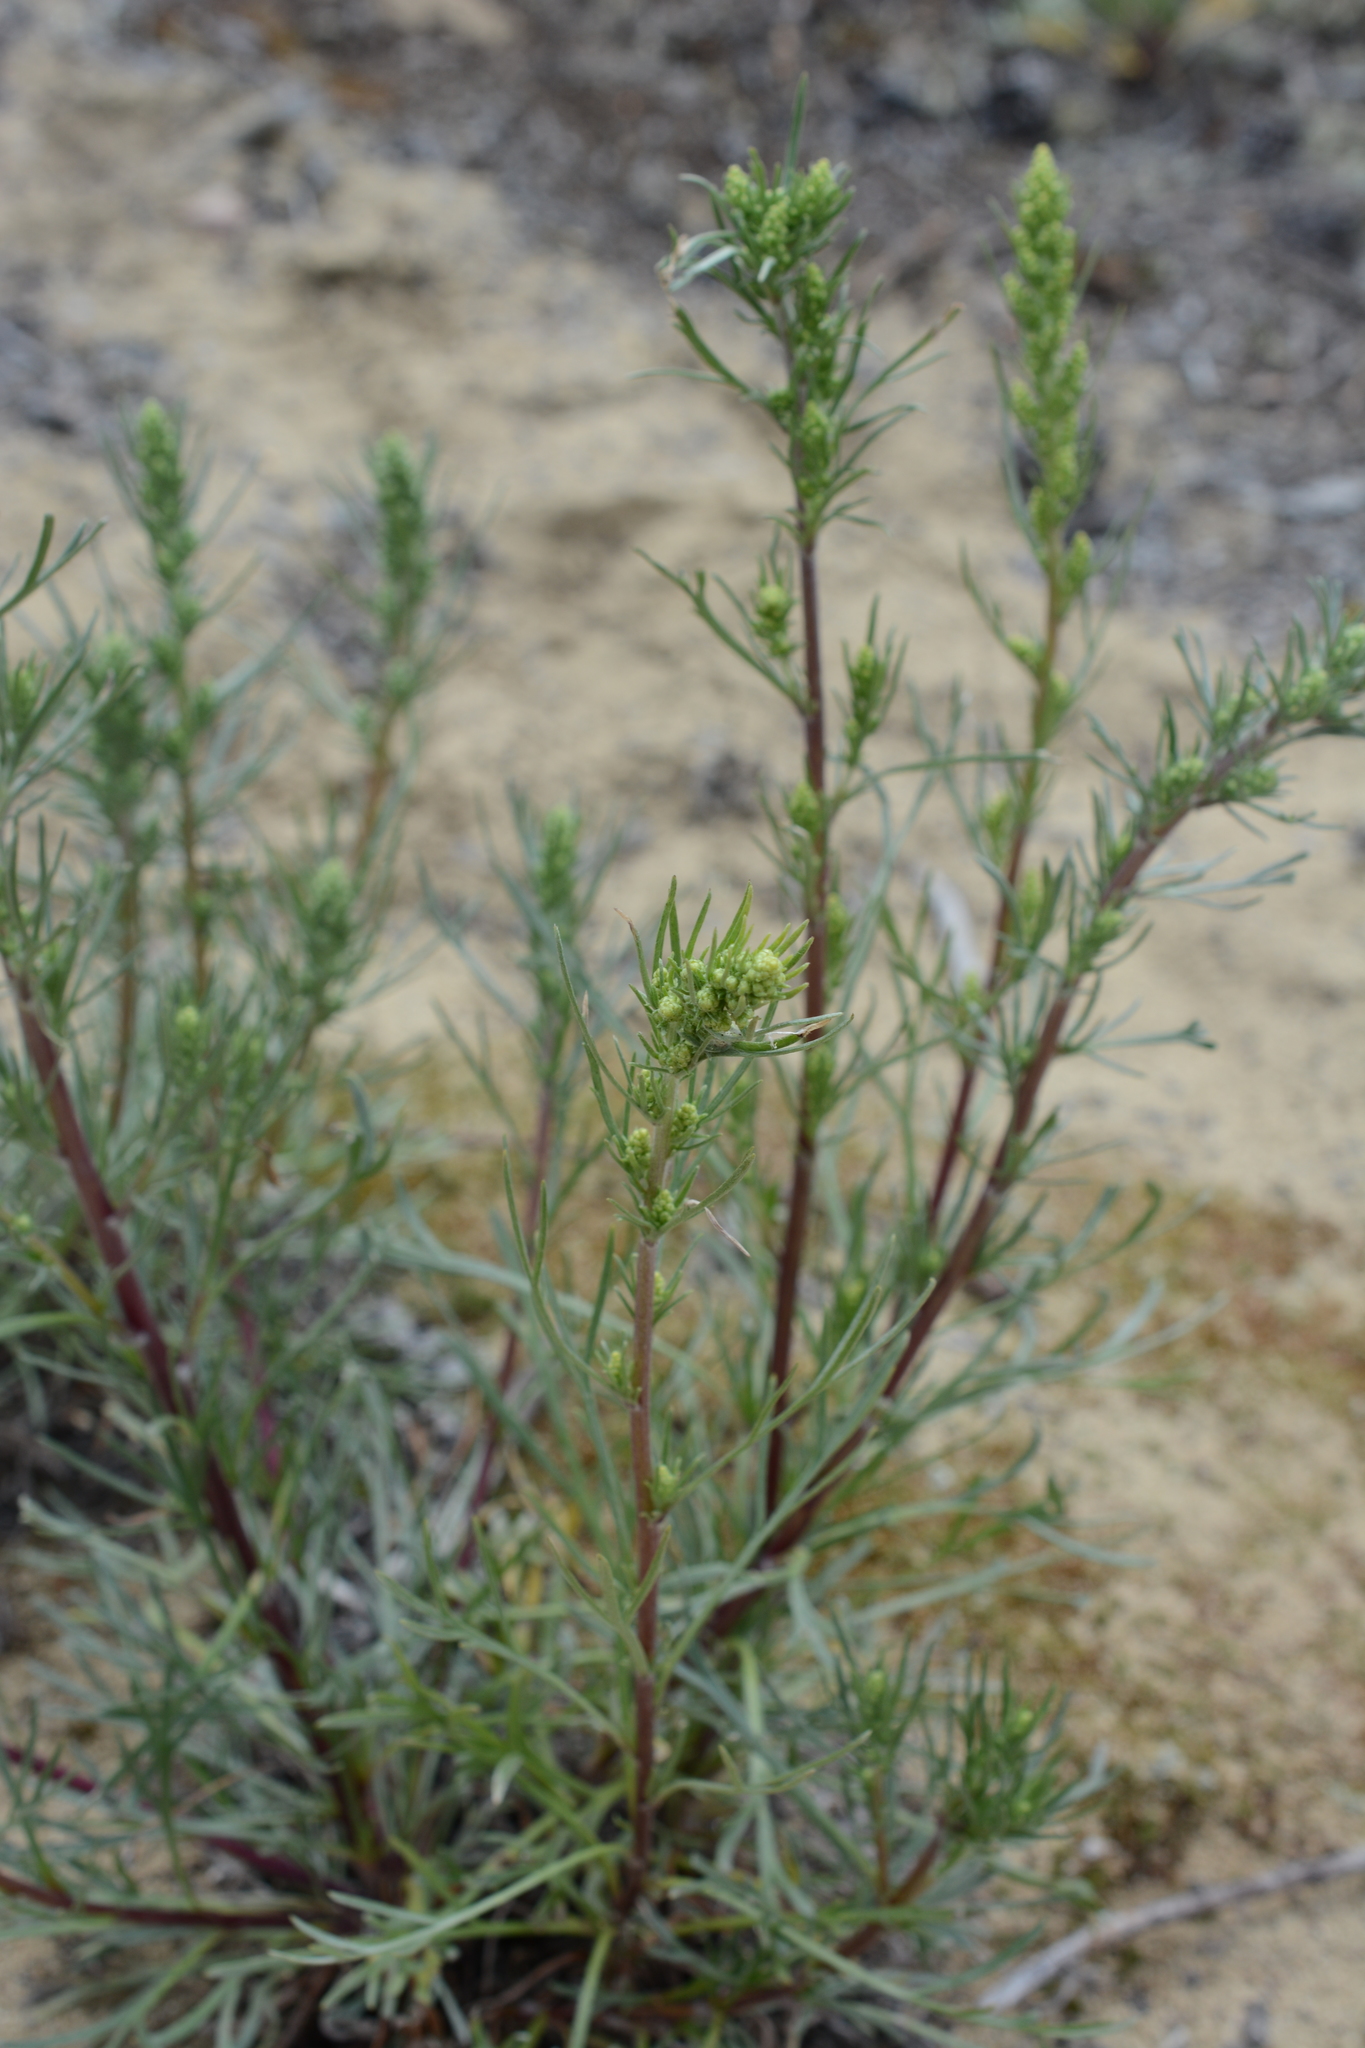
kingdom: Plantae
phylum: Tracheophyta
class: Magnoliopsida
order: Asterales
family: Asteraceae
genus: Artemisia
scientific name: Artemisia campestris
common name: Field wormwood
